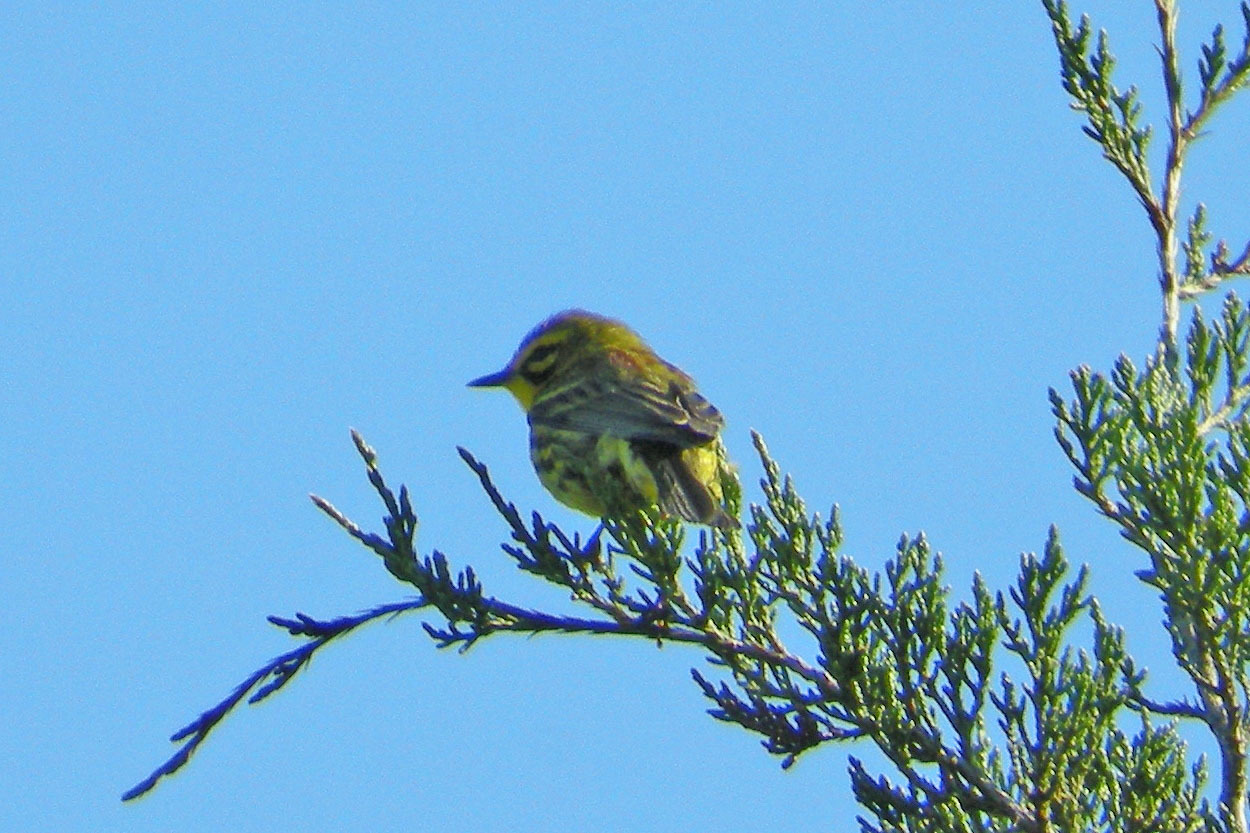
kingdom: Animalia
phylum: Chordata
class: Aves
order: Passeriformes
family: Parulidae
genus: Setophaga
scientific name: Setophaga discolor
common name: Prairie warbler
